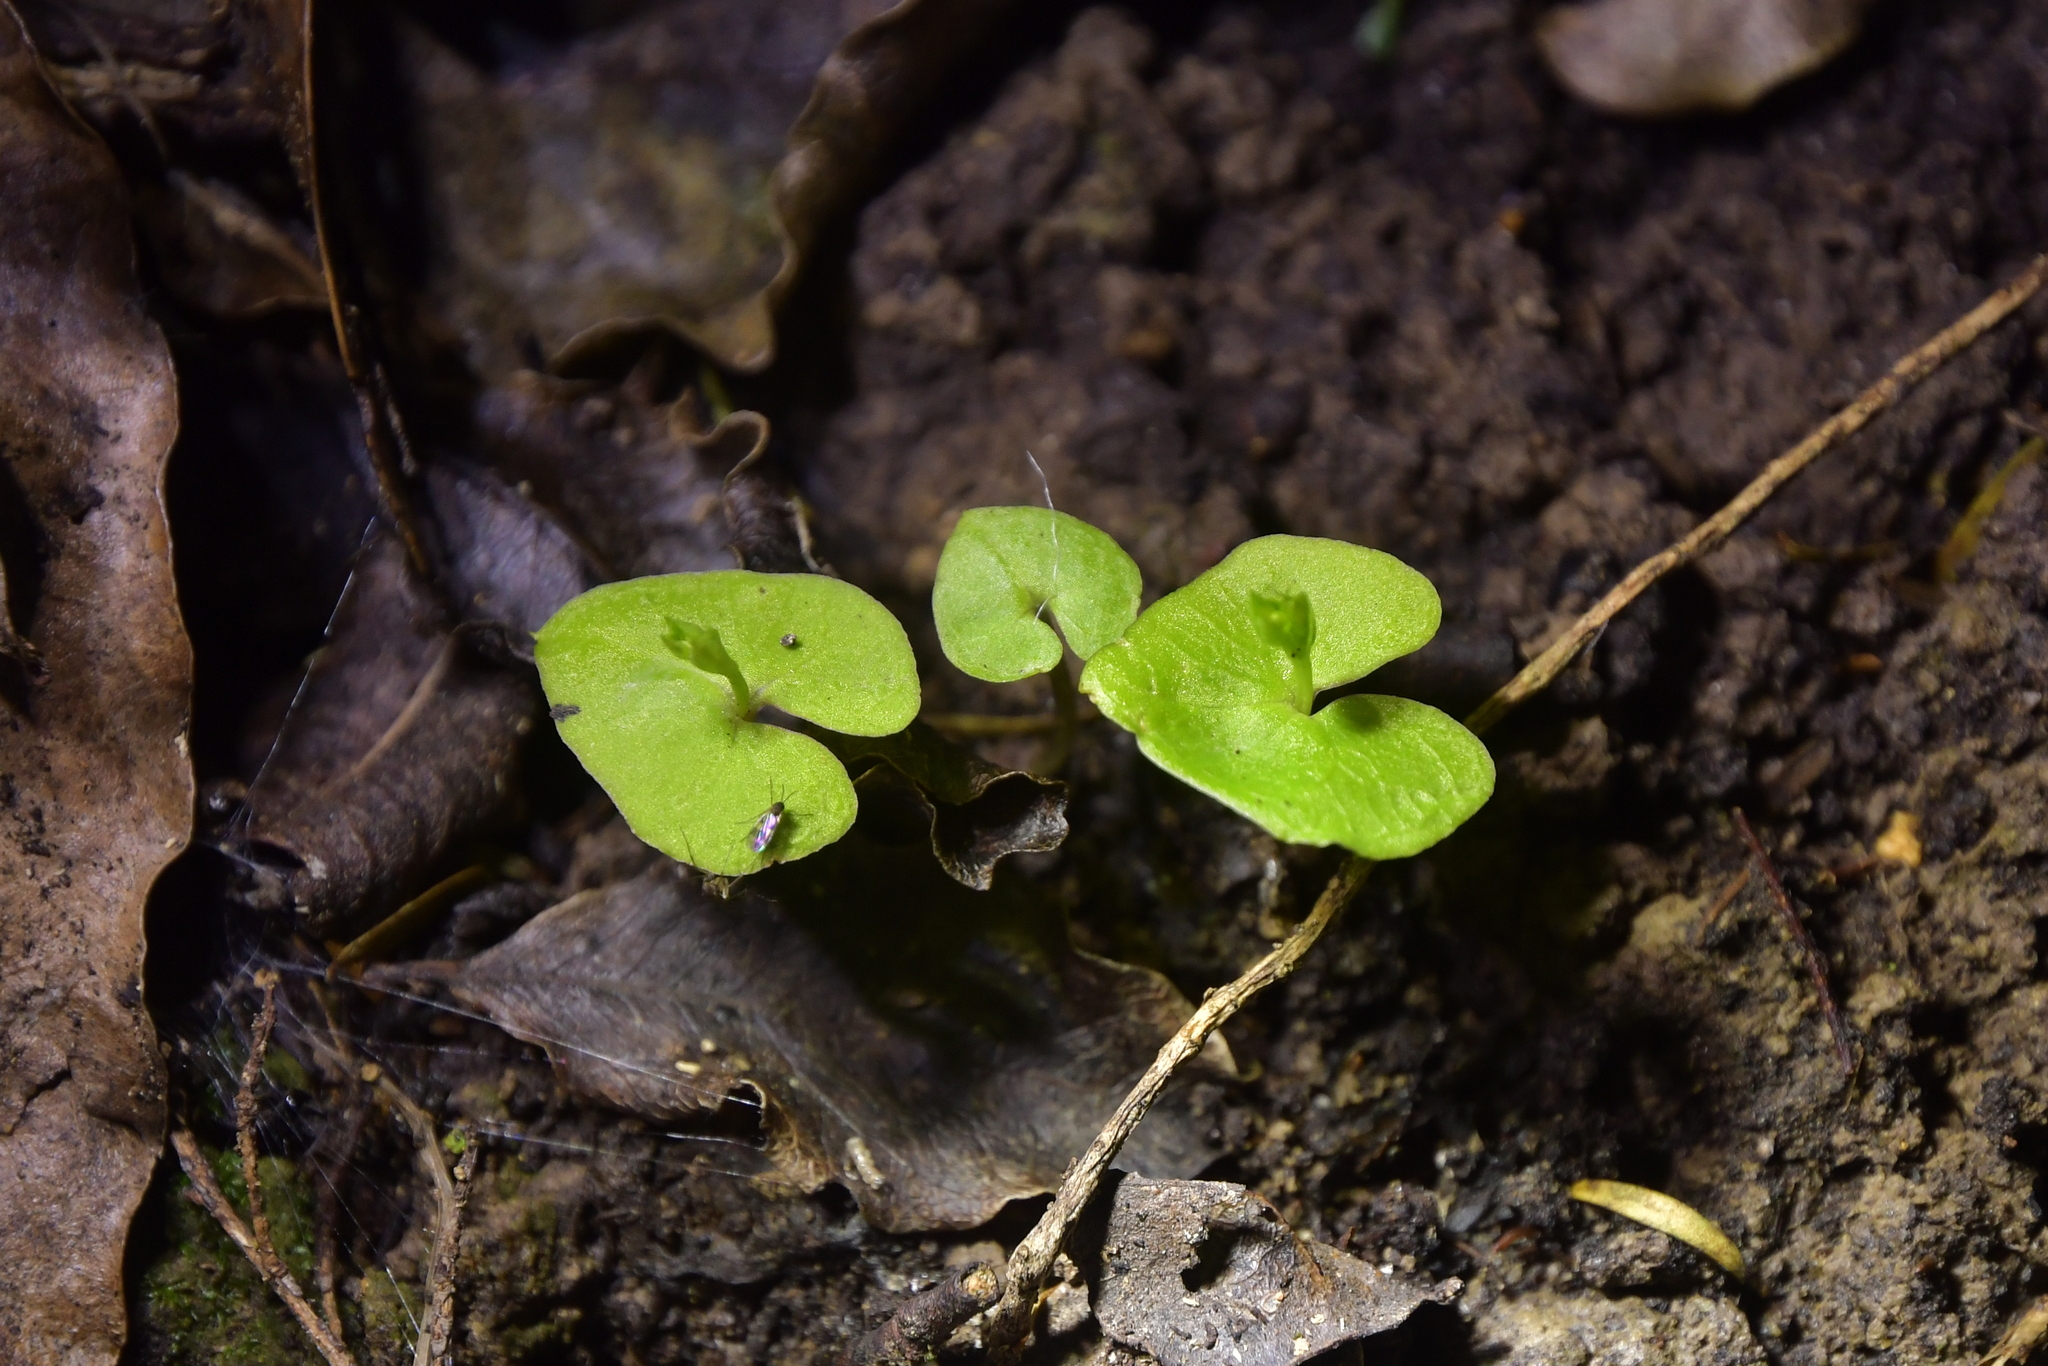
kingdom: Plantae
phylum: Tracheophyta
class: Liliopsida
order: Asparagales
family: Orchidaceae
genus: Acianthus
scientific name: Acianthus sinclairii
